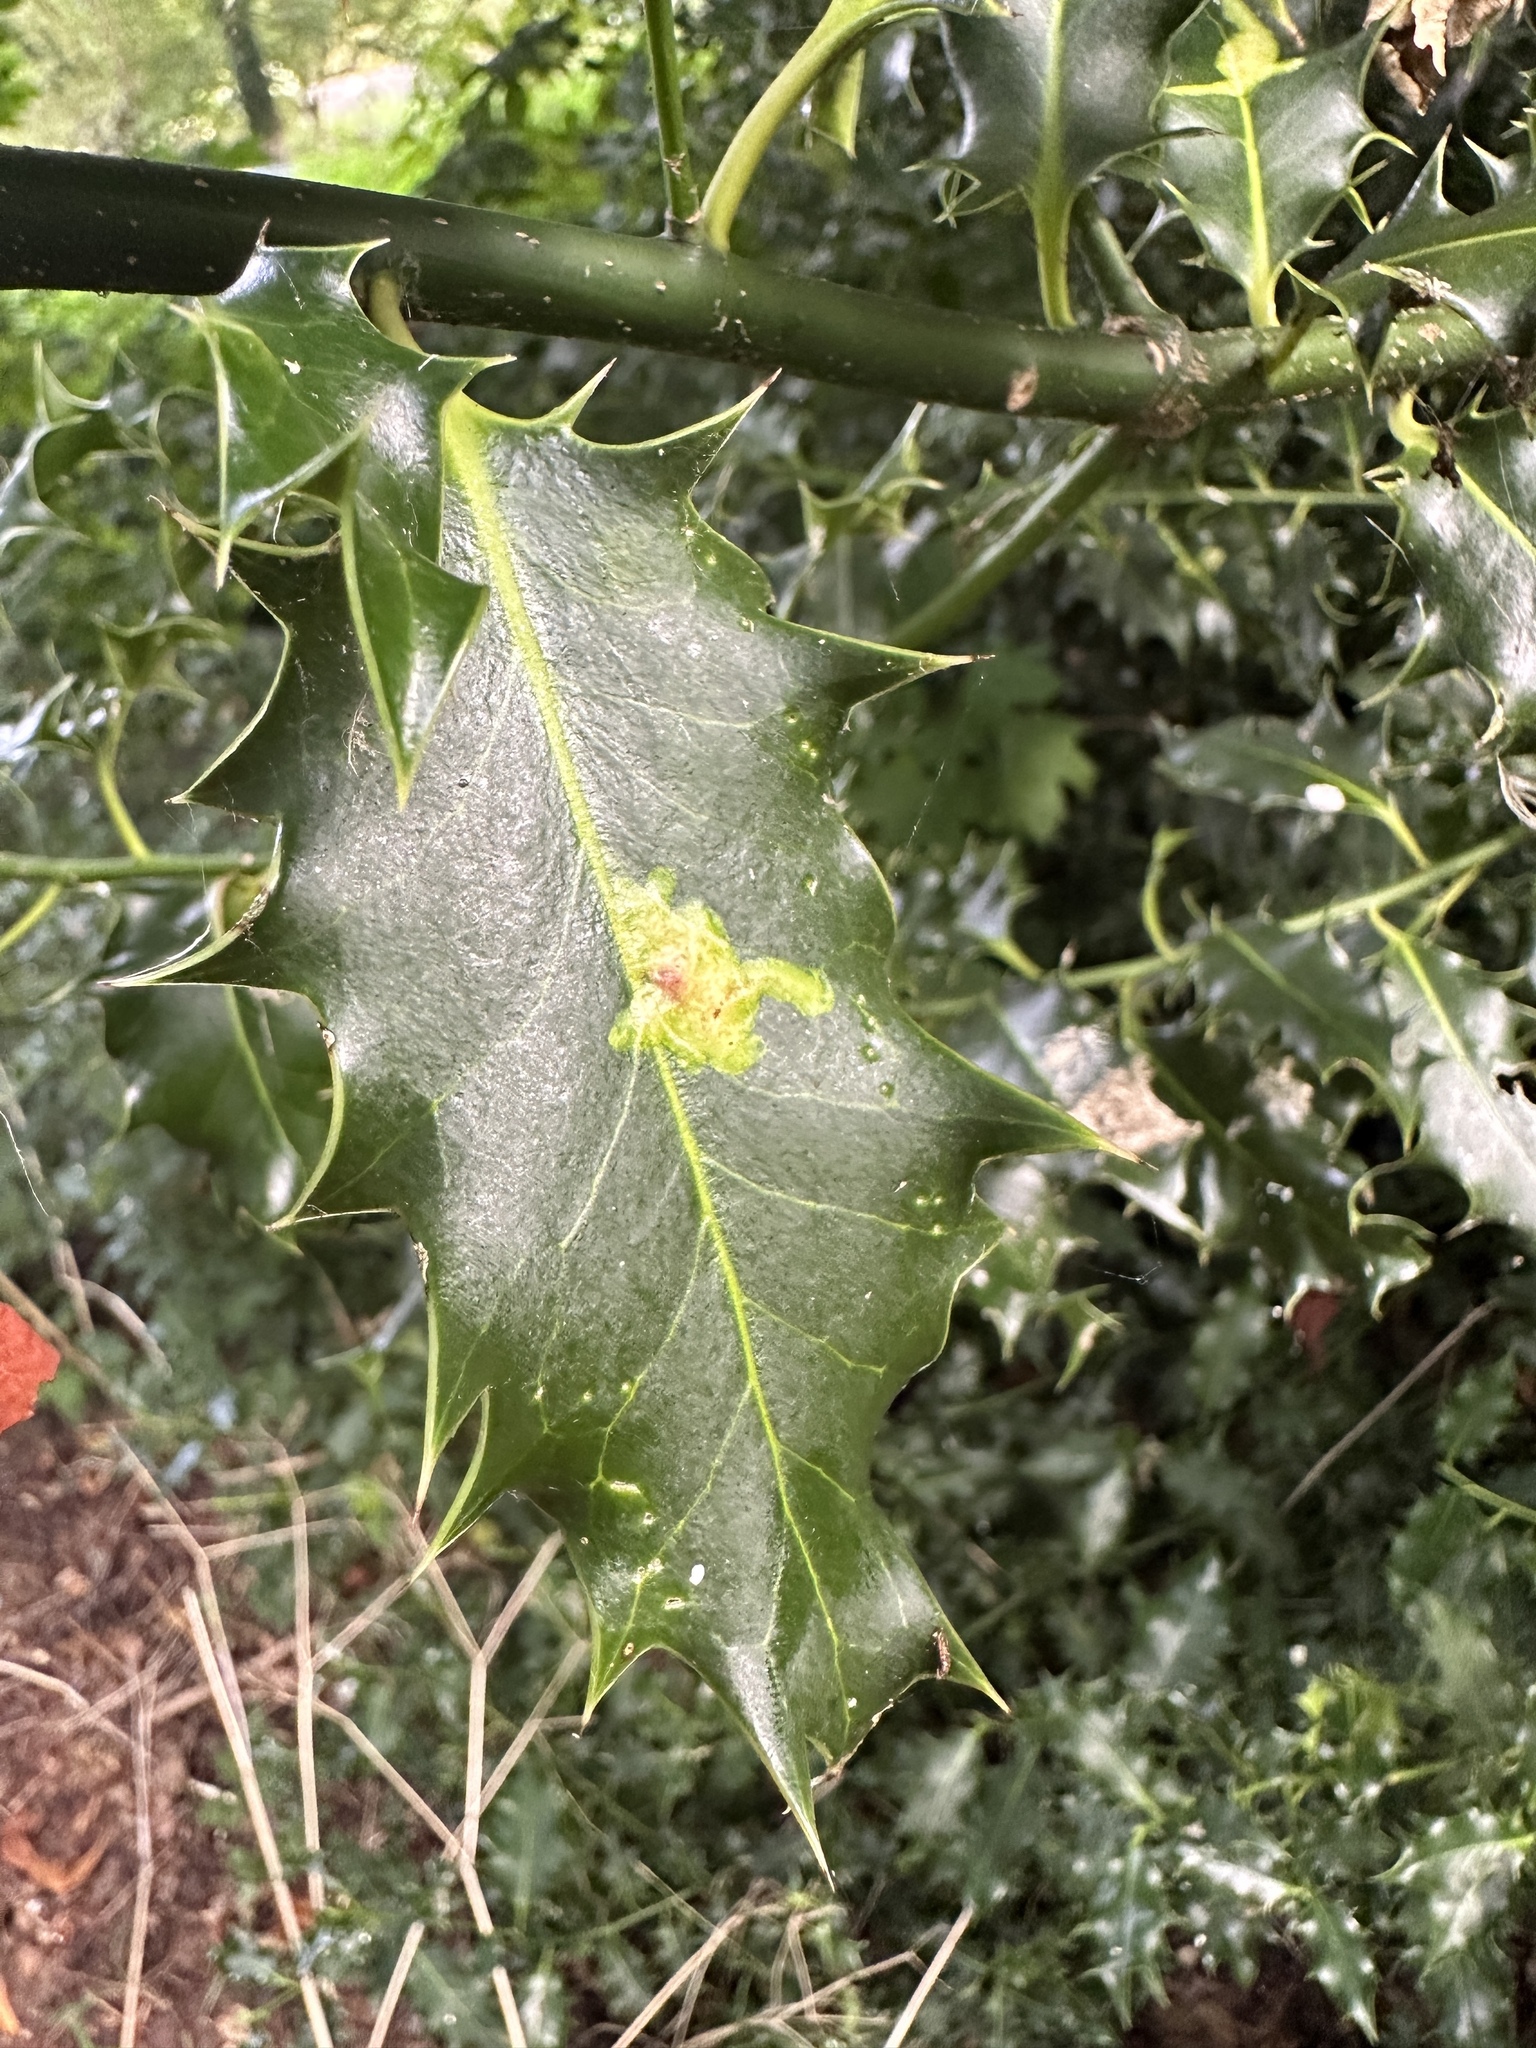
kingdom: Animalia
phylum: Arthropoda
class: Insecta
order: Diptera
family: Agromyzidae
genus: Phytomyza
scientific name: Phytomyza ilicis
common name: Holly leafminer
